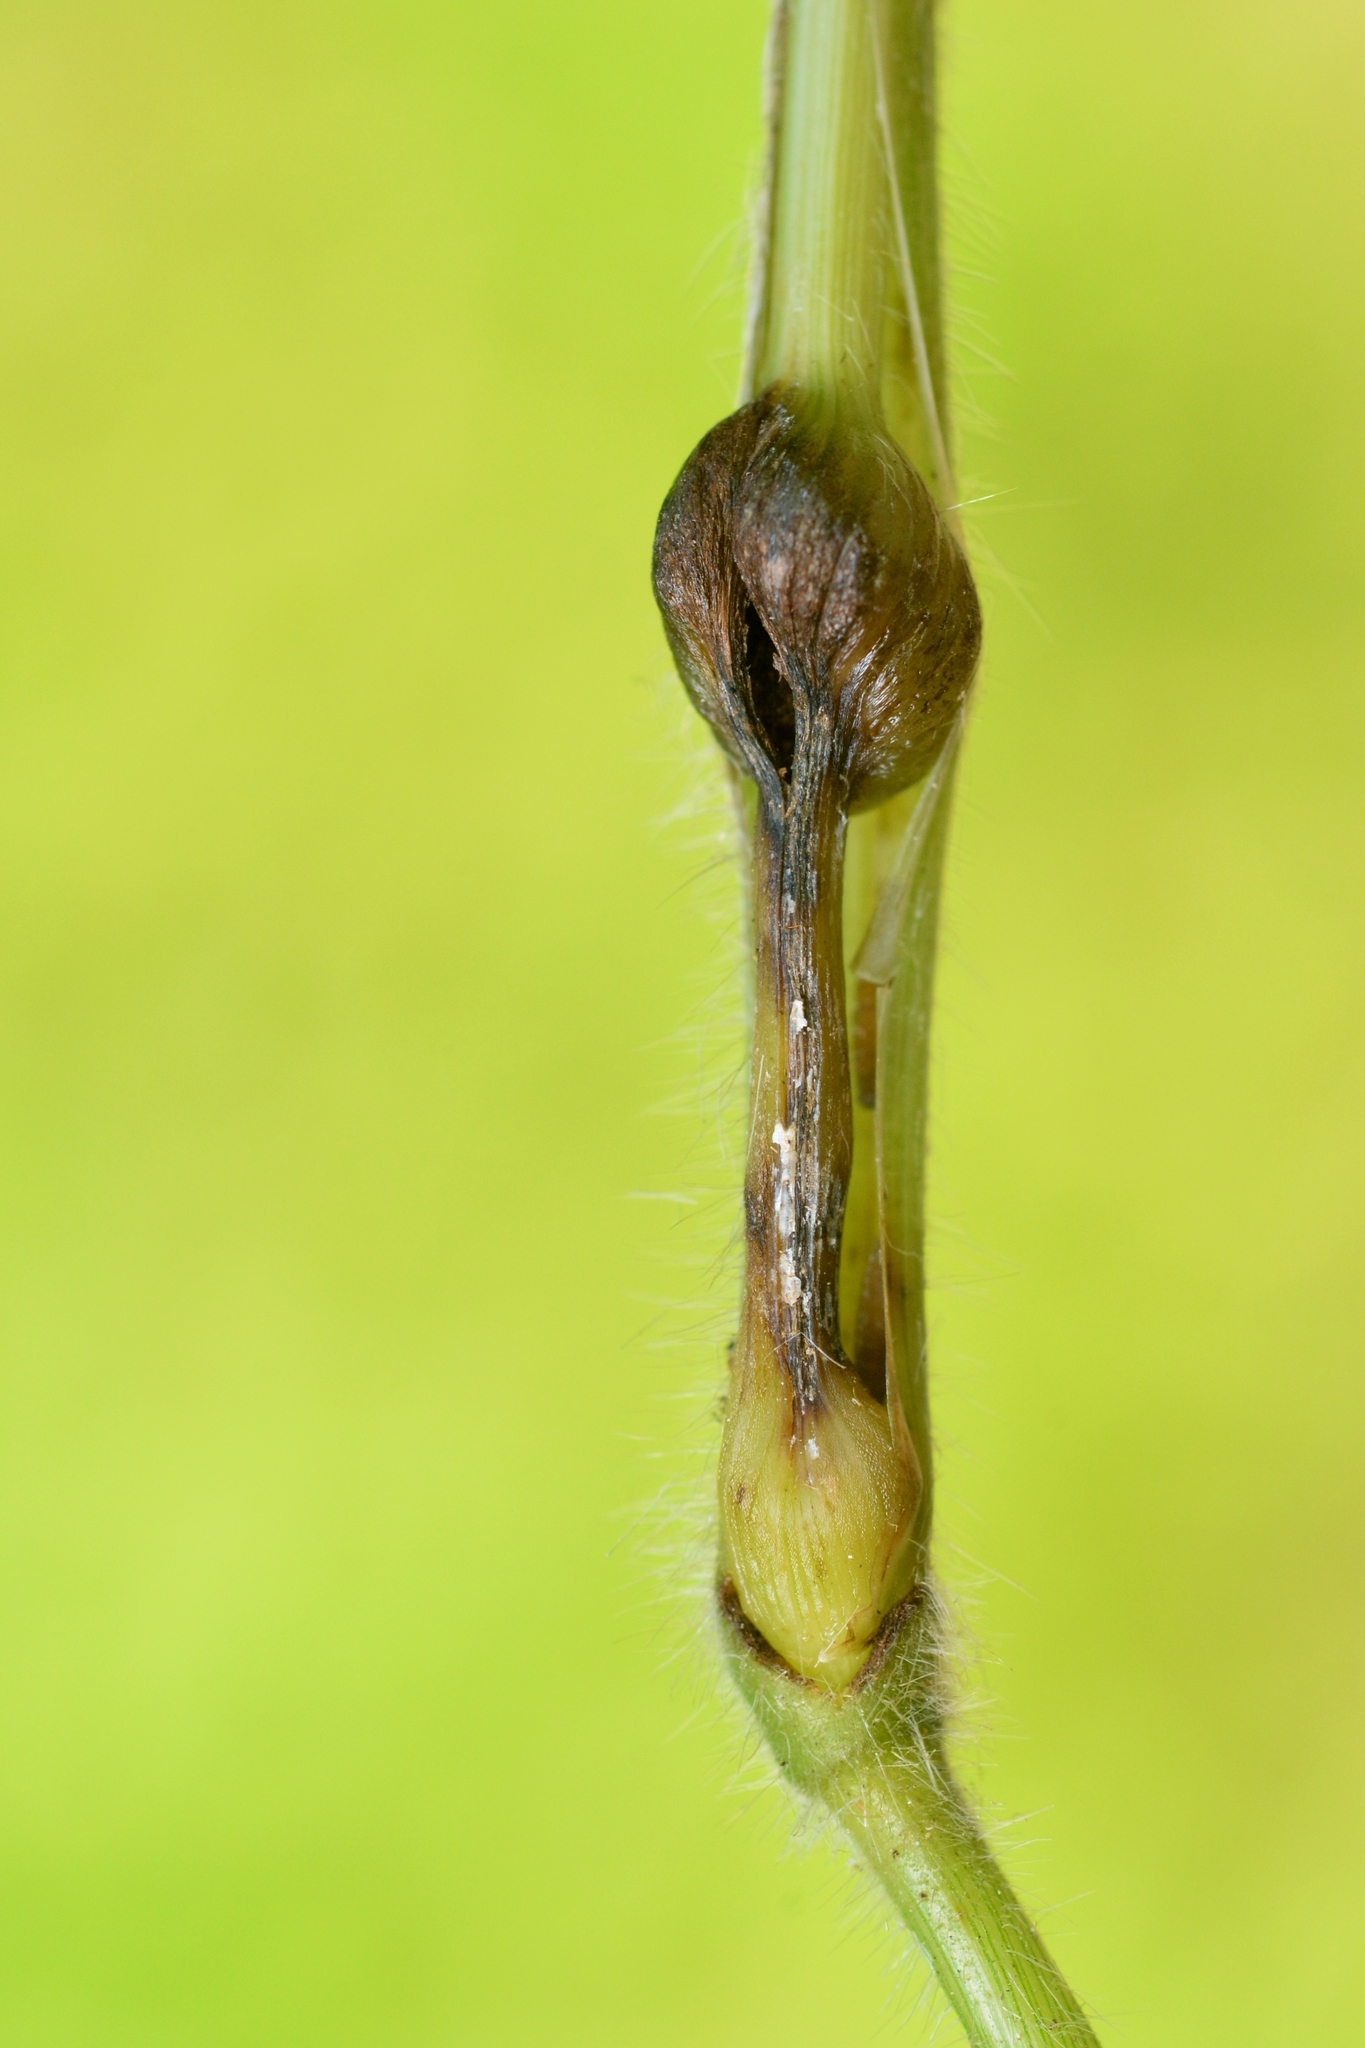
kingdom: Animalia
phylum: Arthropoda
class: Insecta
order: Diptera
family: Cecidomyiidae
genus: Mayetiola
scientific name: Mayetiola hellwigi
